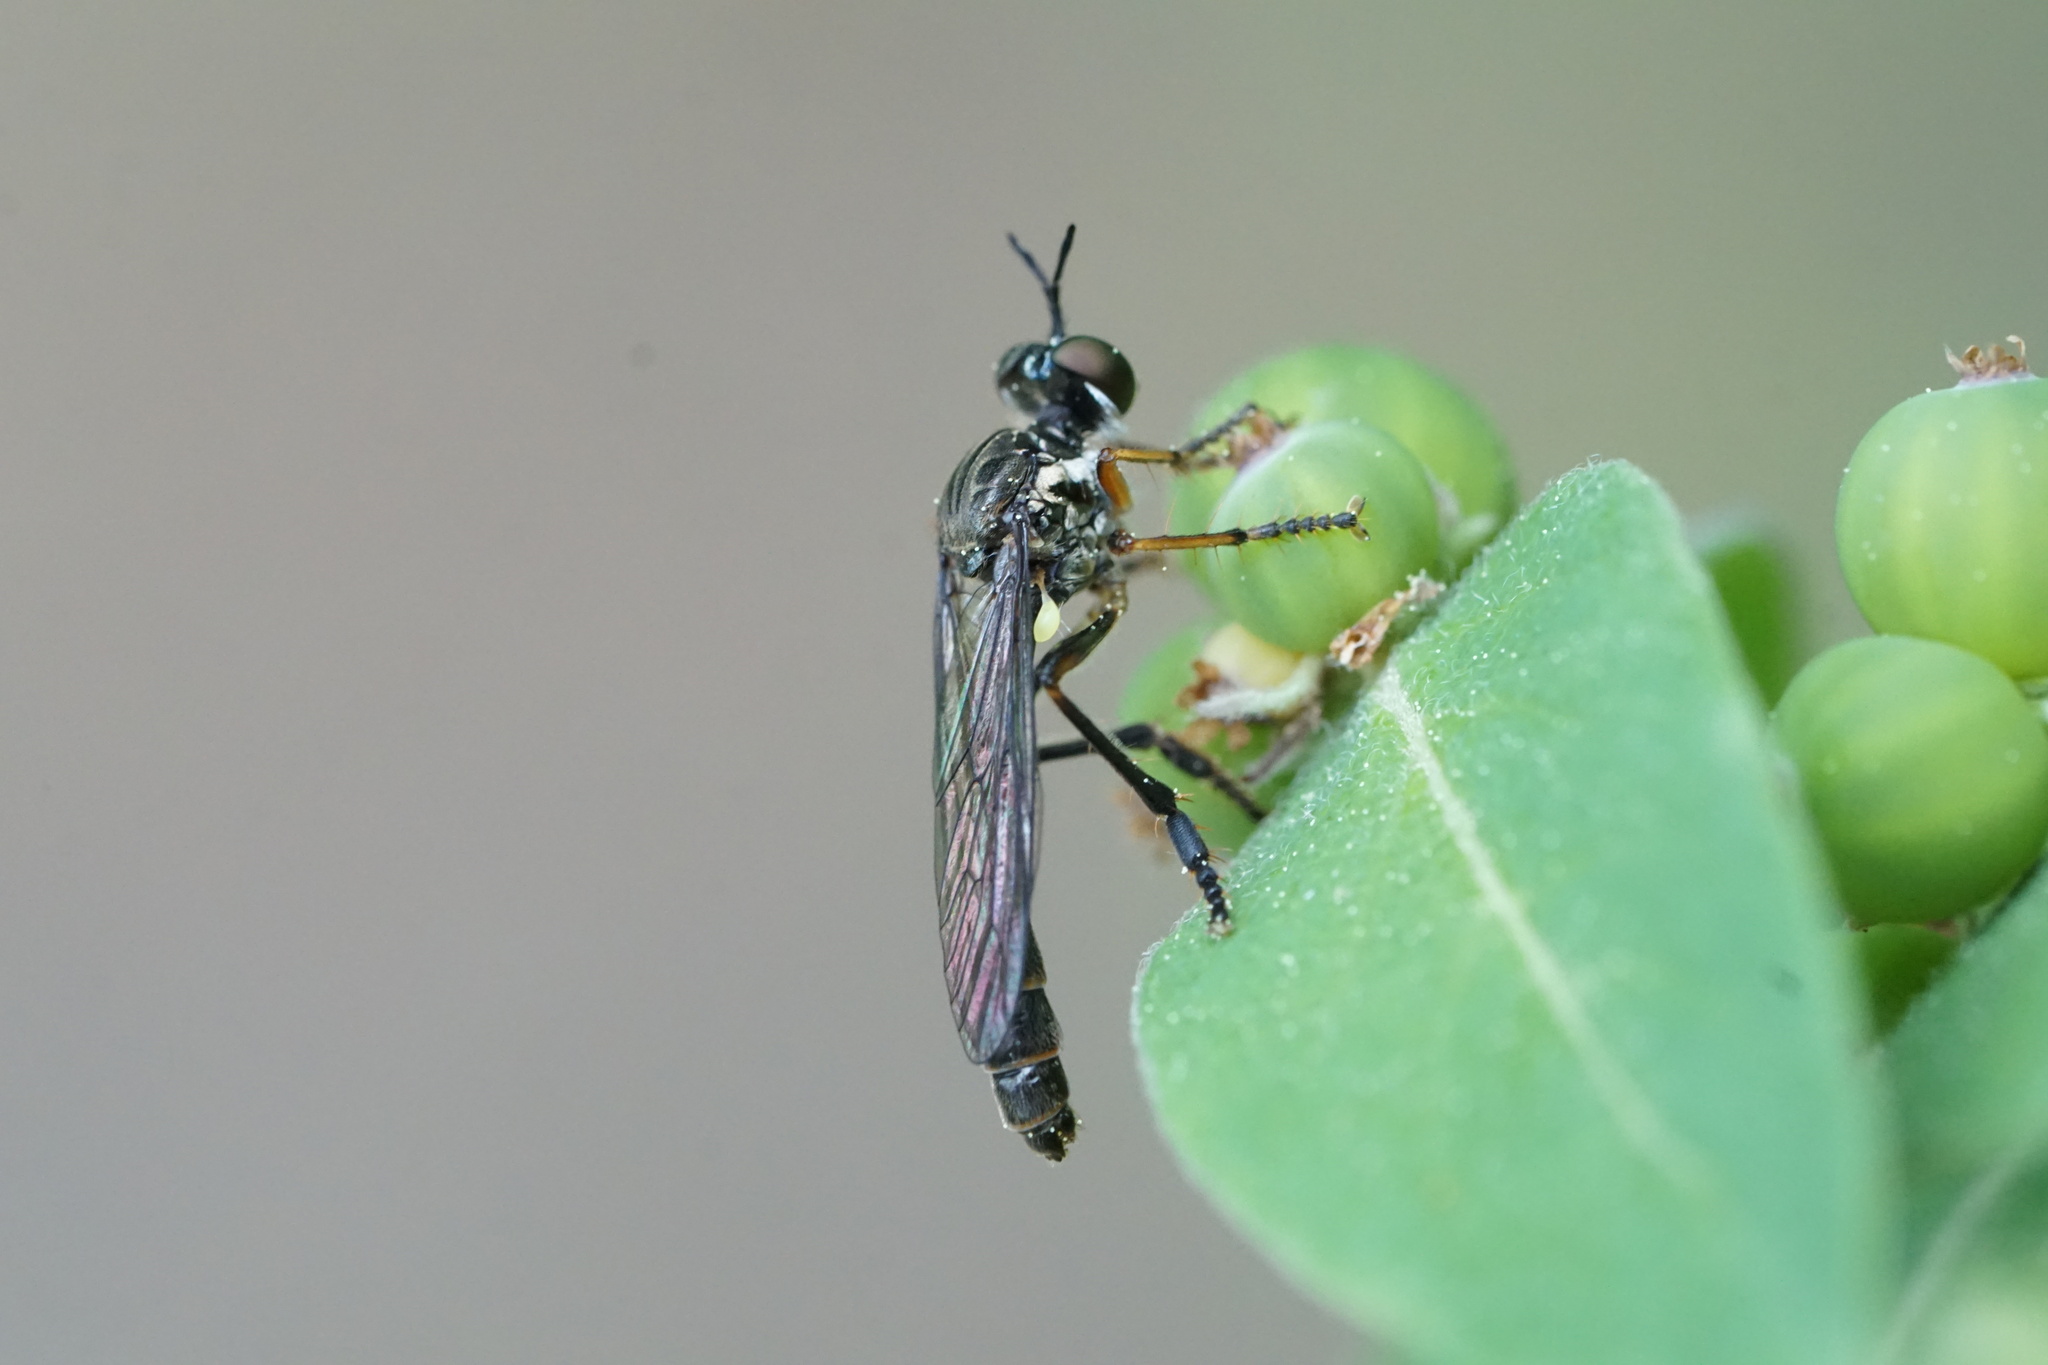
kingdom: Animalia
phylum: Arthropoda
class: Insecta
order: Diptera
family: Asilidae
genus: Dioctria
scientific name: Dioctria hyalipennis
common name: Stripe-legged robberfly
